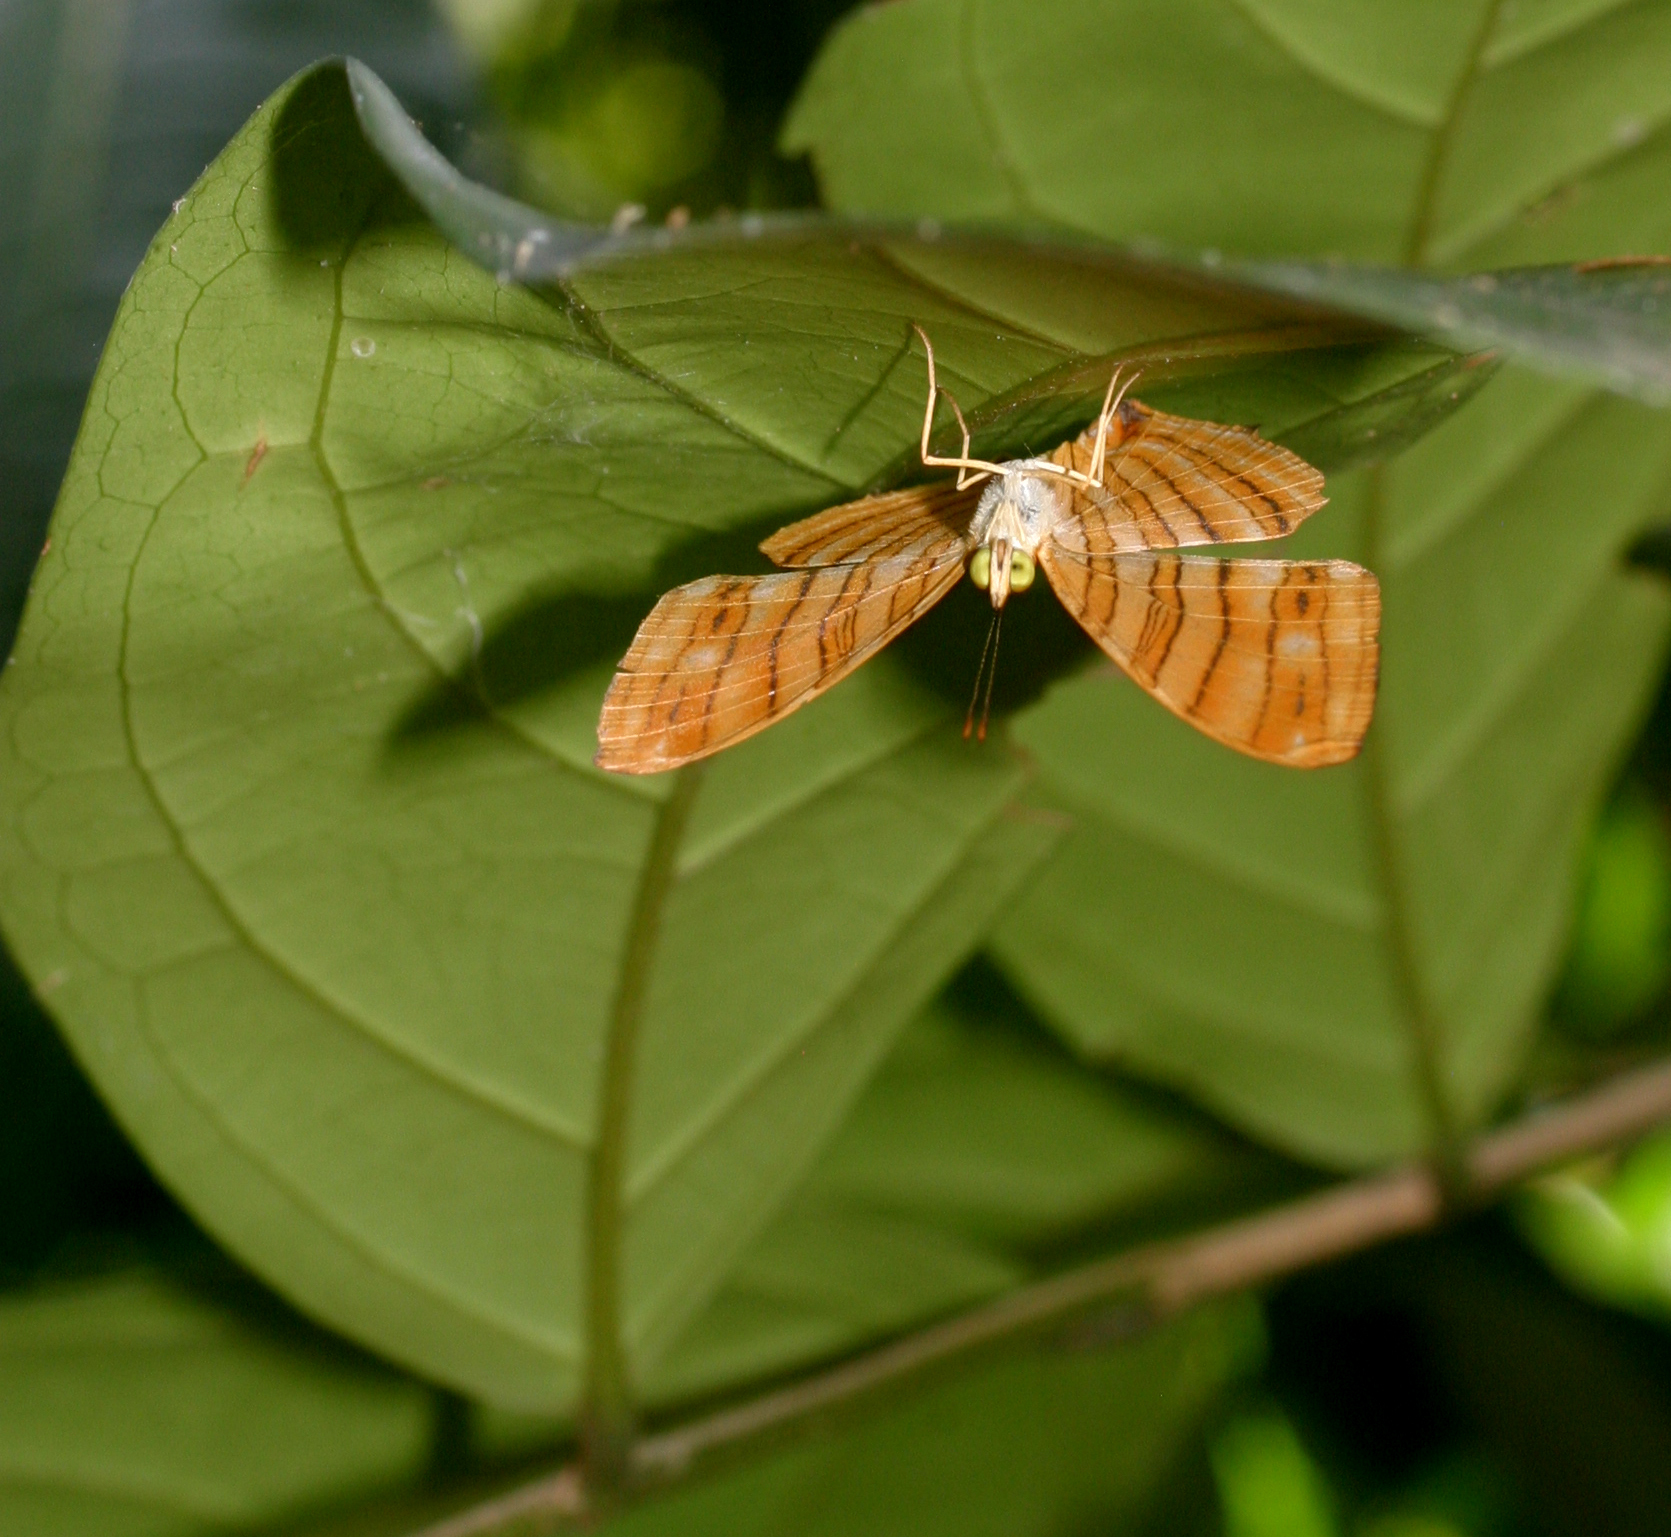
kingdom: Animalia
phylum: Arthropoda
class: Insecta
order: Lepidoptera
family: Nymphalidae
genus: Chersonesia
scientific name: Chersonesia risa
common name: Common maplet
